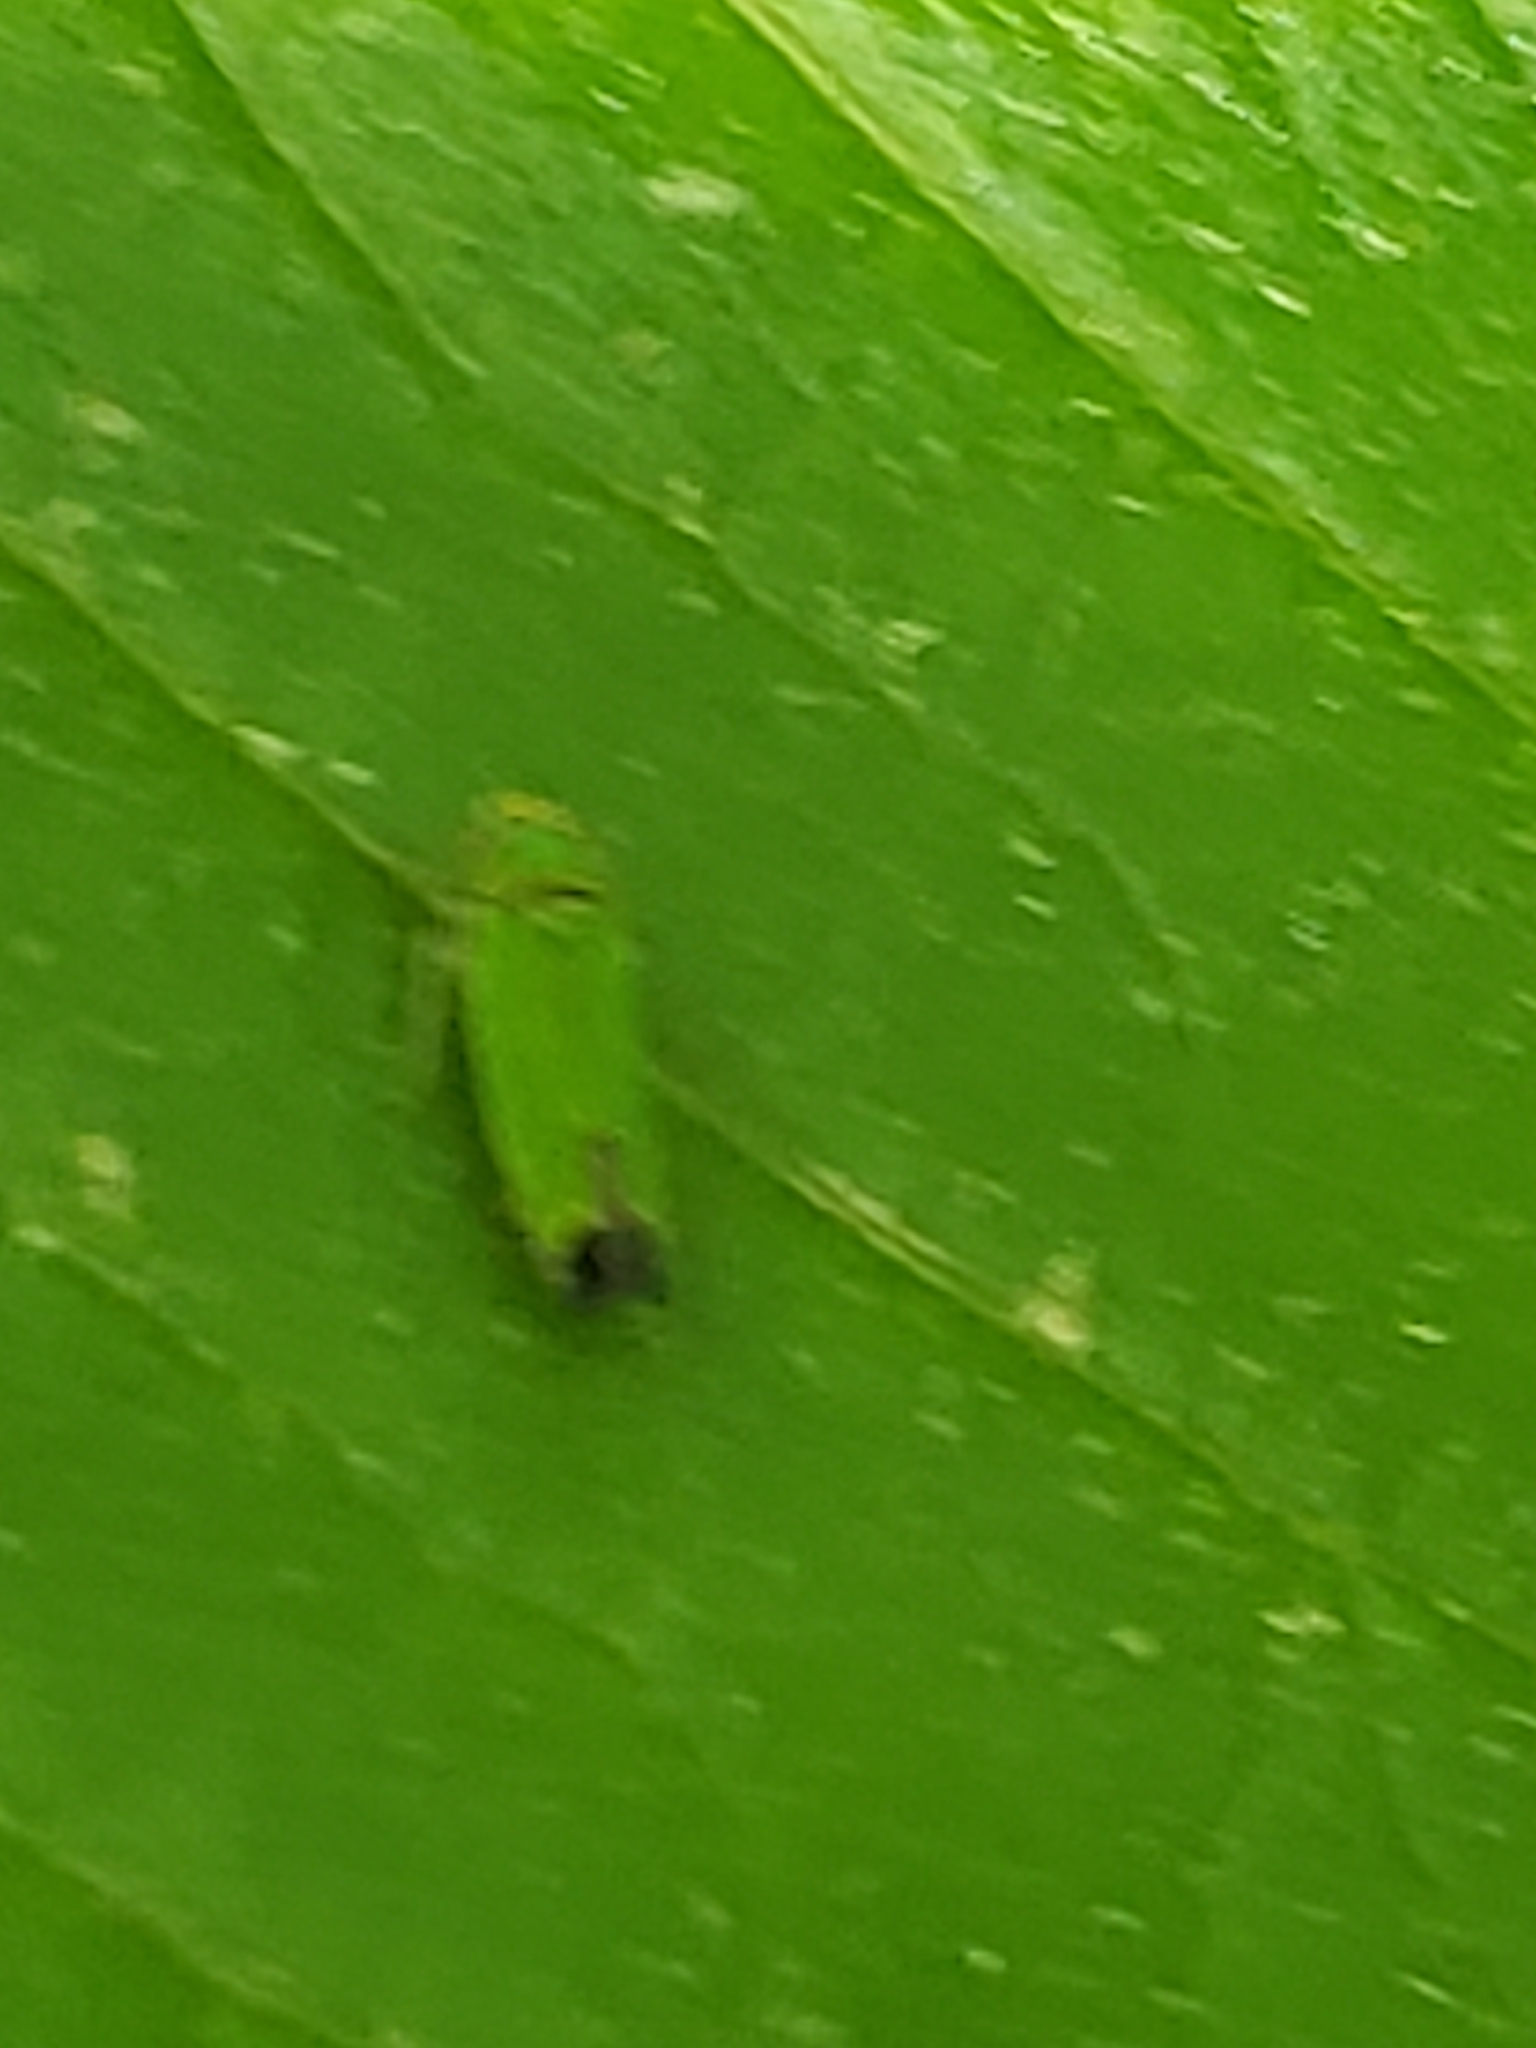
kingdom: Animalia
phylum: Arthropoda
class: Insecta
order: Hemiptera
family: Cicadellidae
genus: Tylozygus
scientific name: Tylozygus geometricus
